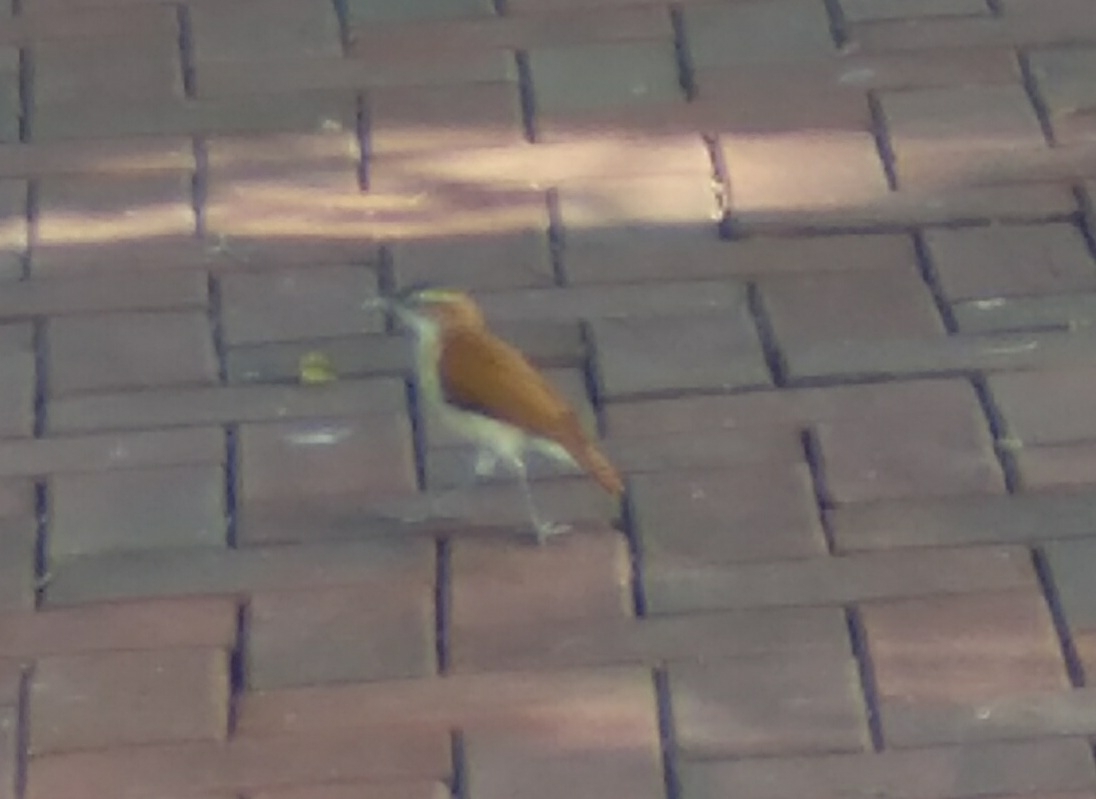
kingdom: Animalia
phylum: Chordata
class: Aves
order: Passeriformes
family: Furnariidae
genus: Furnarius
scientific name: Furnarius leucopus
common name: Pale-legged hornero
